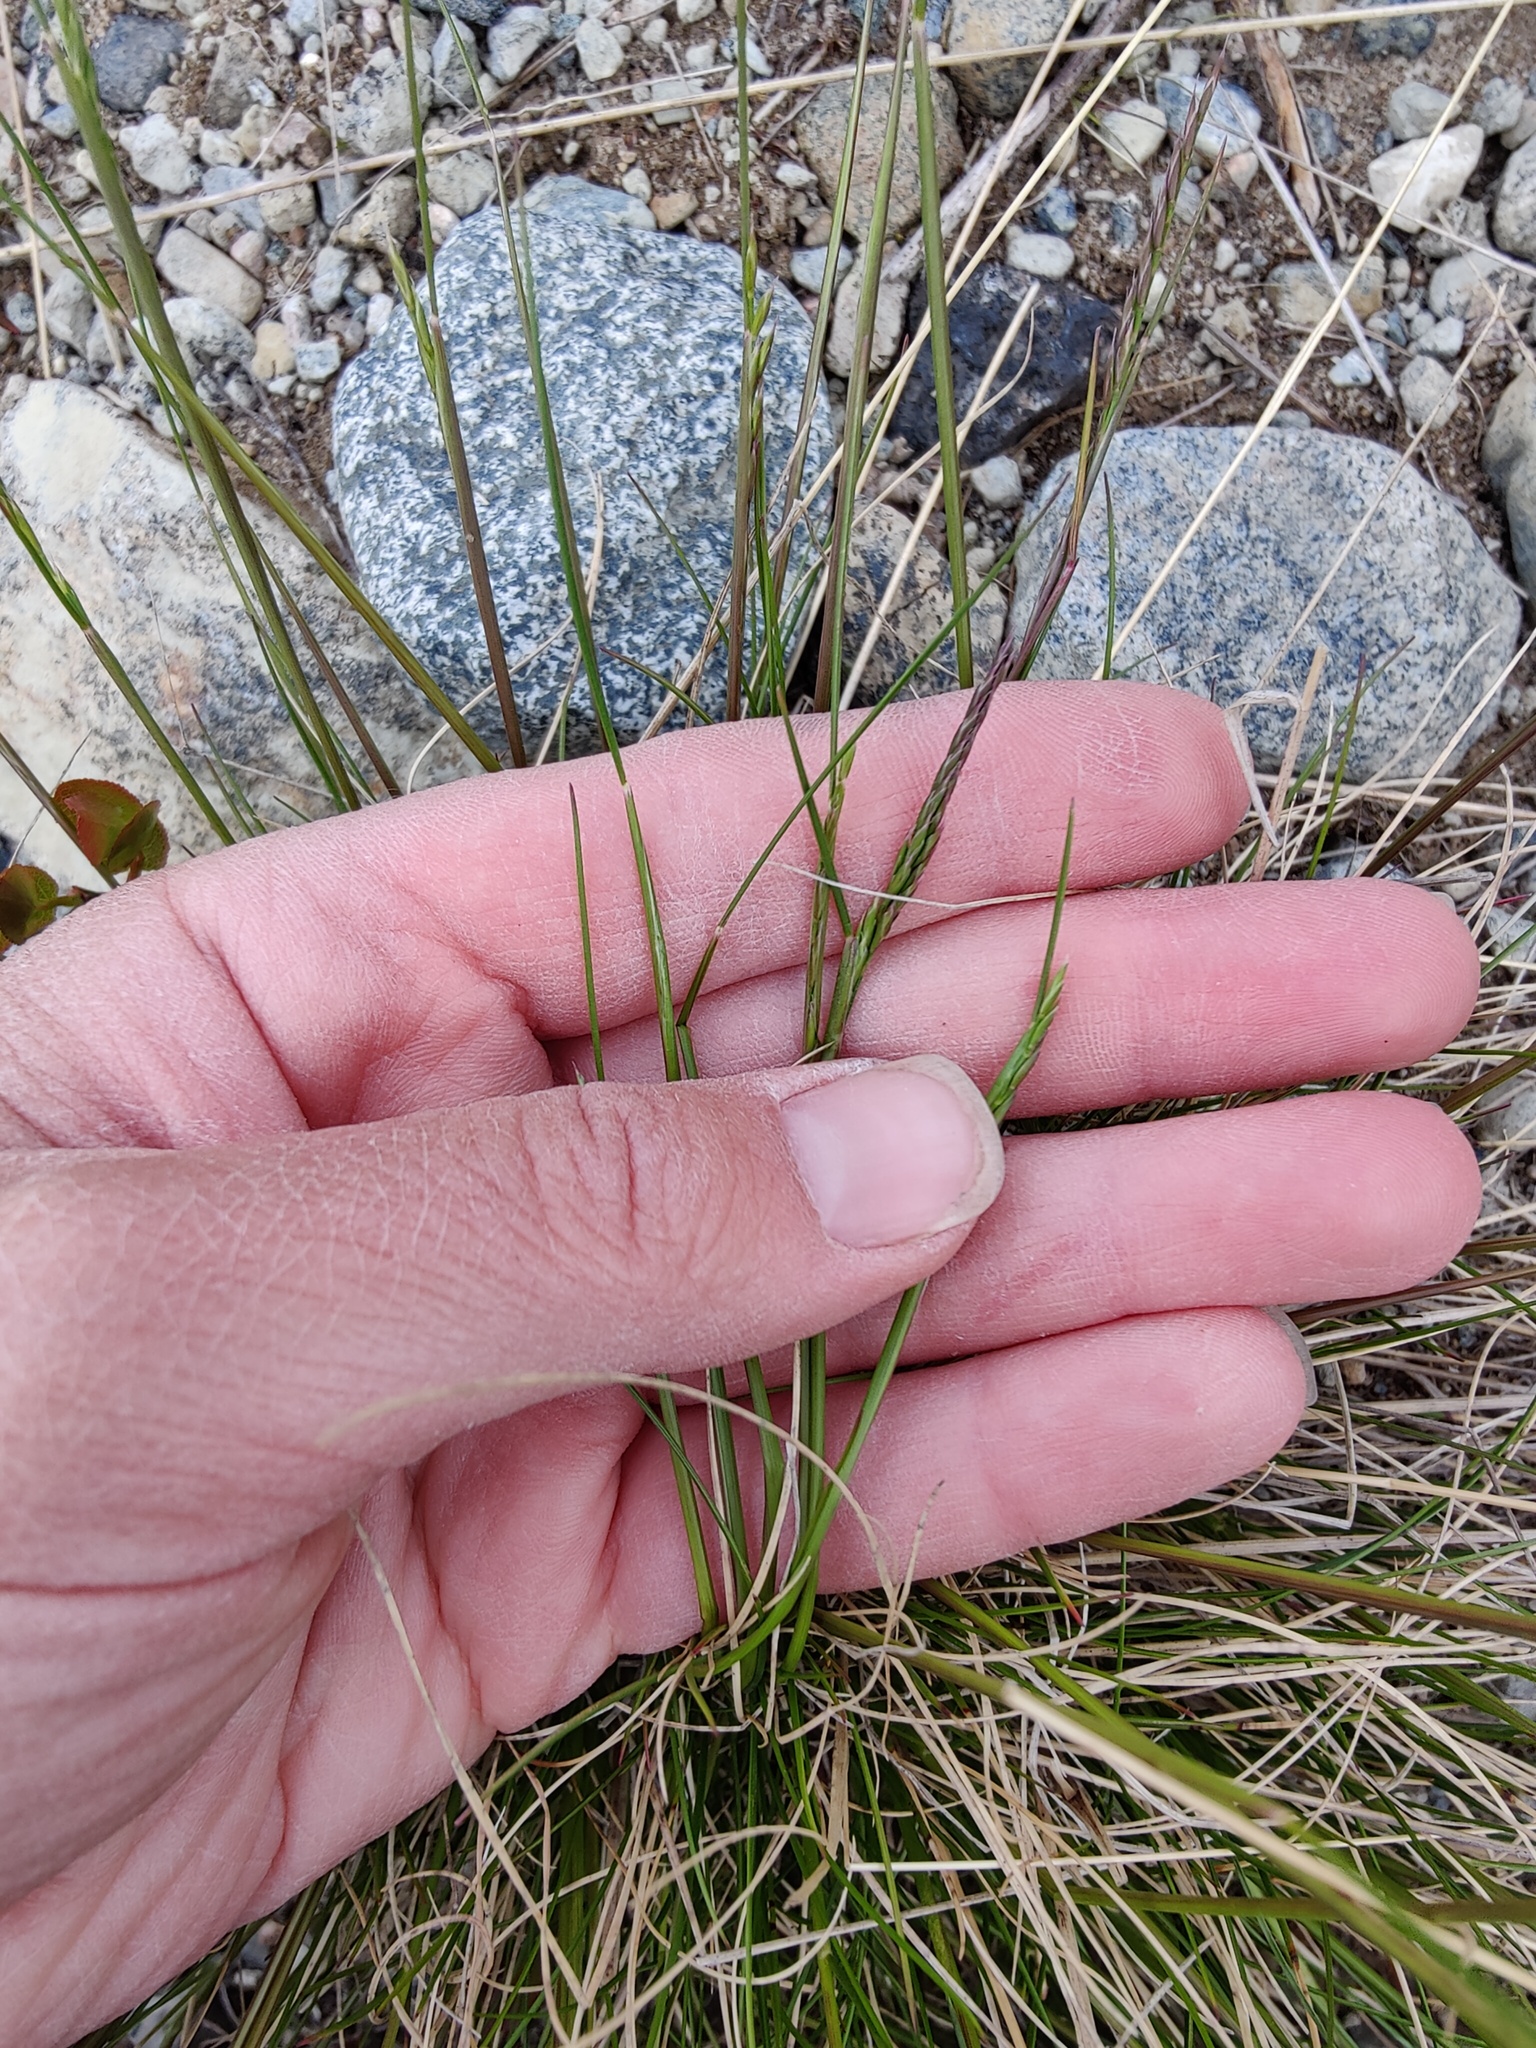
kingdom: Plantae
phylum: Tracheophyta
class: Liliopsida
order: Poales
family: Poaceae
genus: Nardus
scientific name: Nardus stricta
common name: Mat-grass
